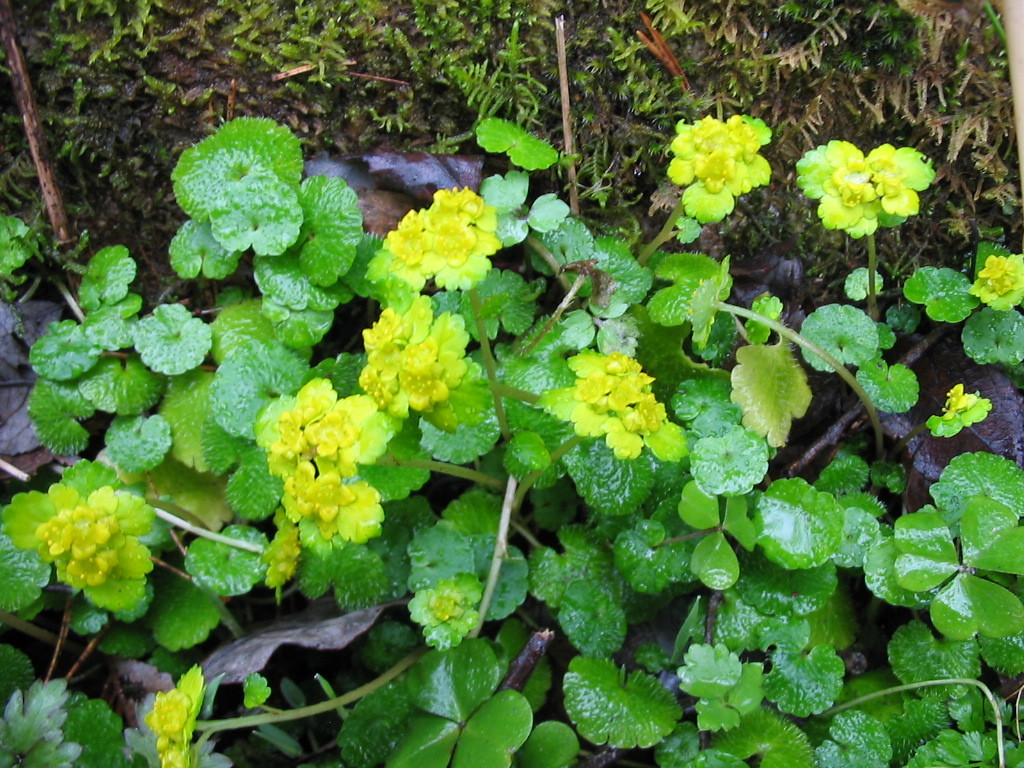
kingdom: Plantae
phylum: Tracheophyta
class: Magnoliopsida
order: Saxifragales
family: Saxifragaceae
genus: Chrysosplenium
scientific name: Chrysosplenium alternifolium
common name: Alternate-leaved golden-saxifrage
